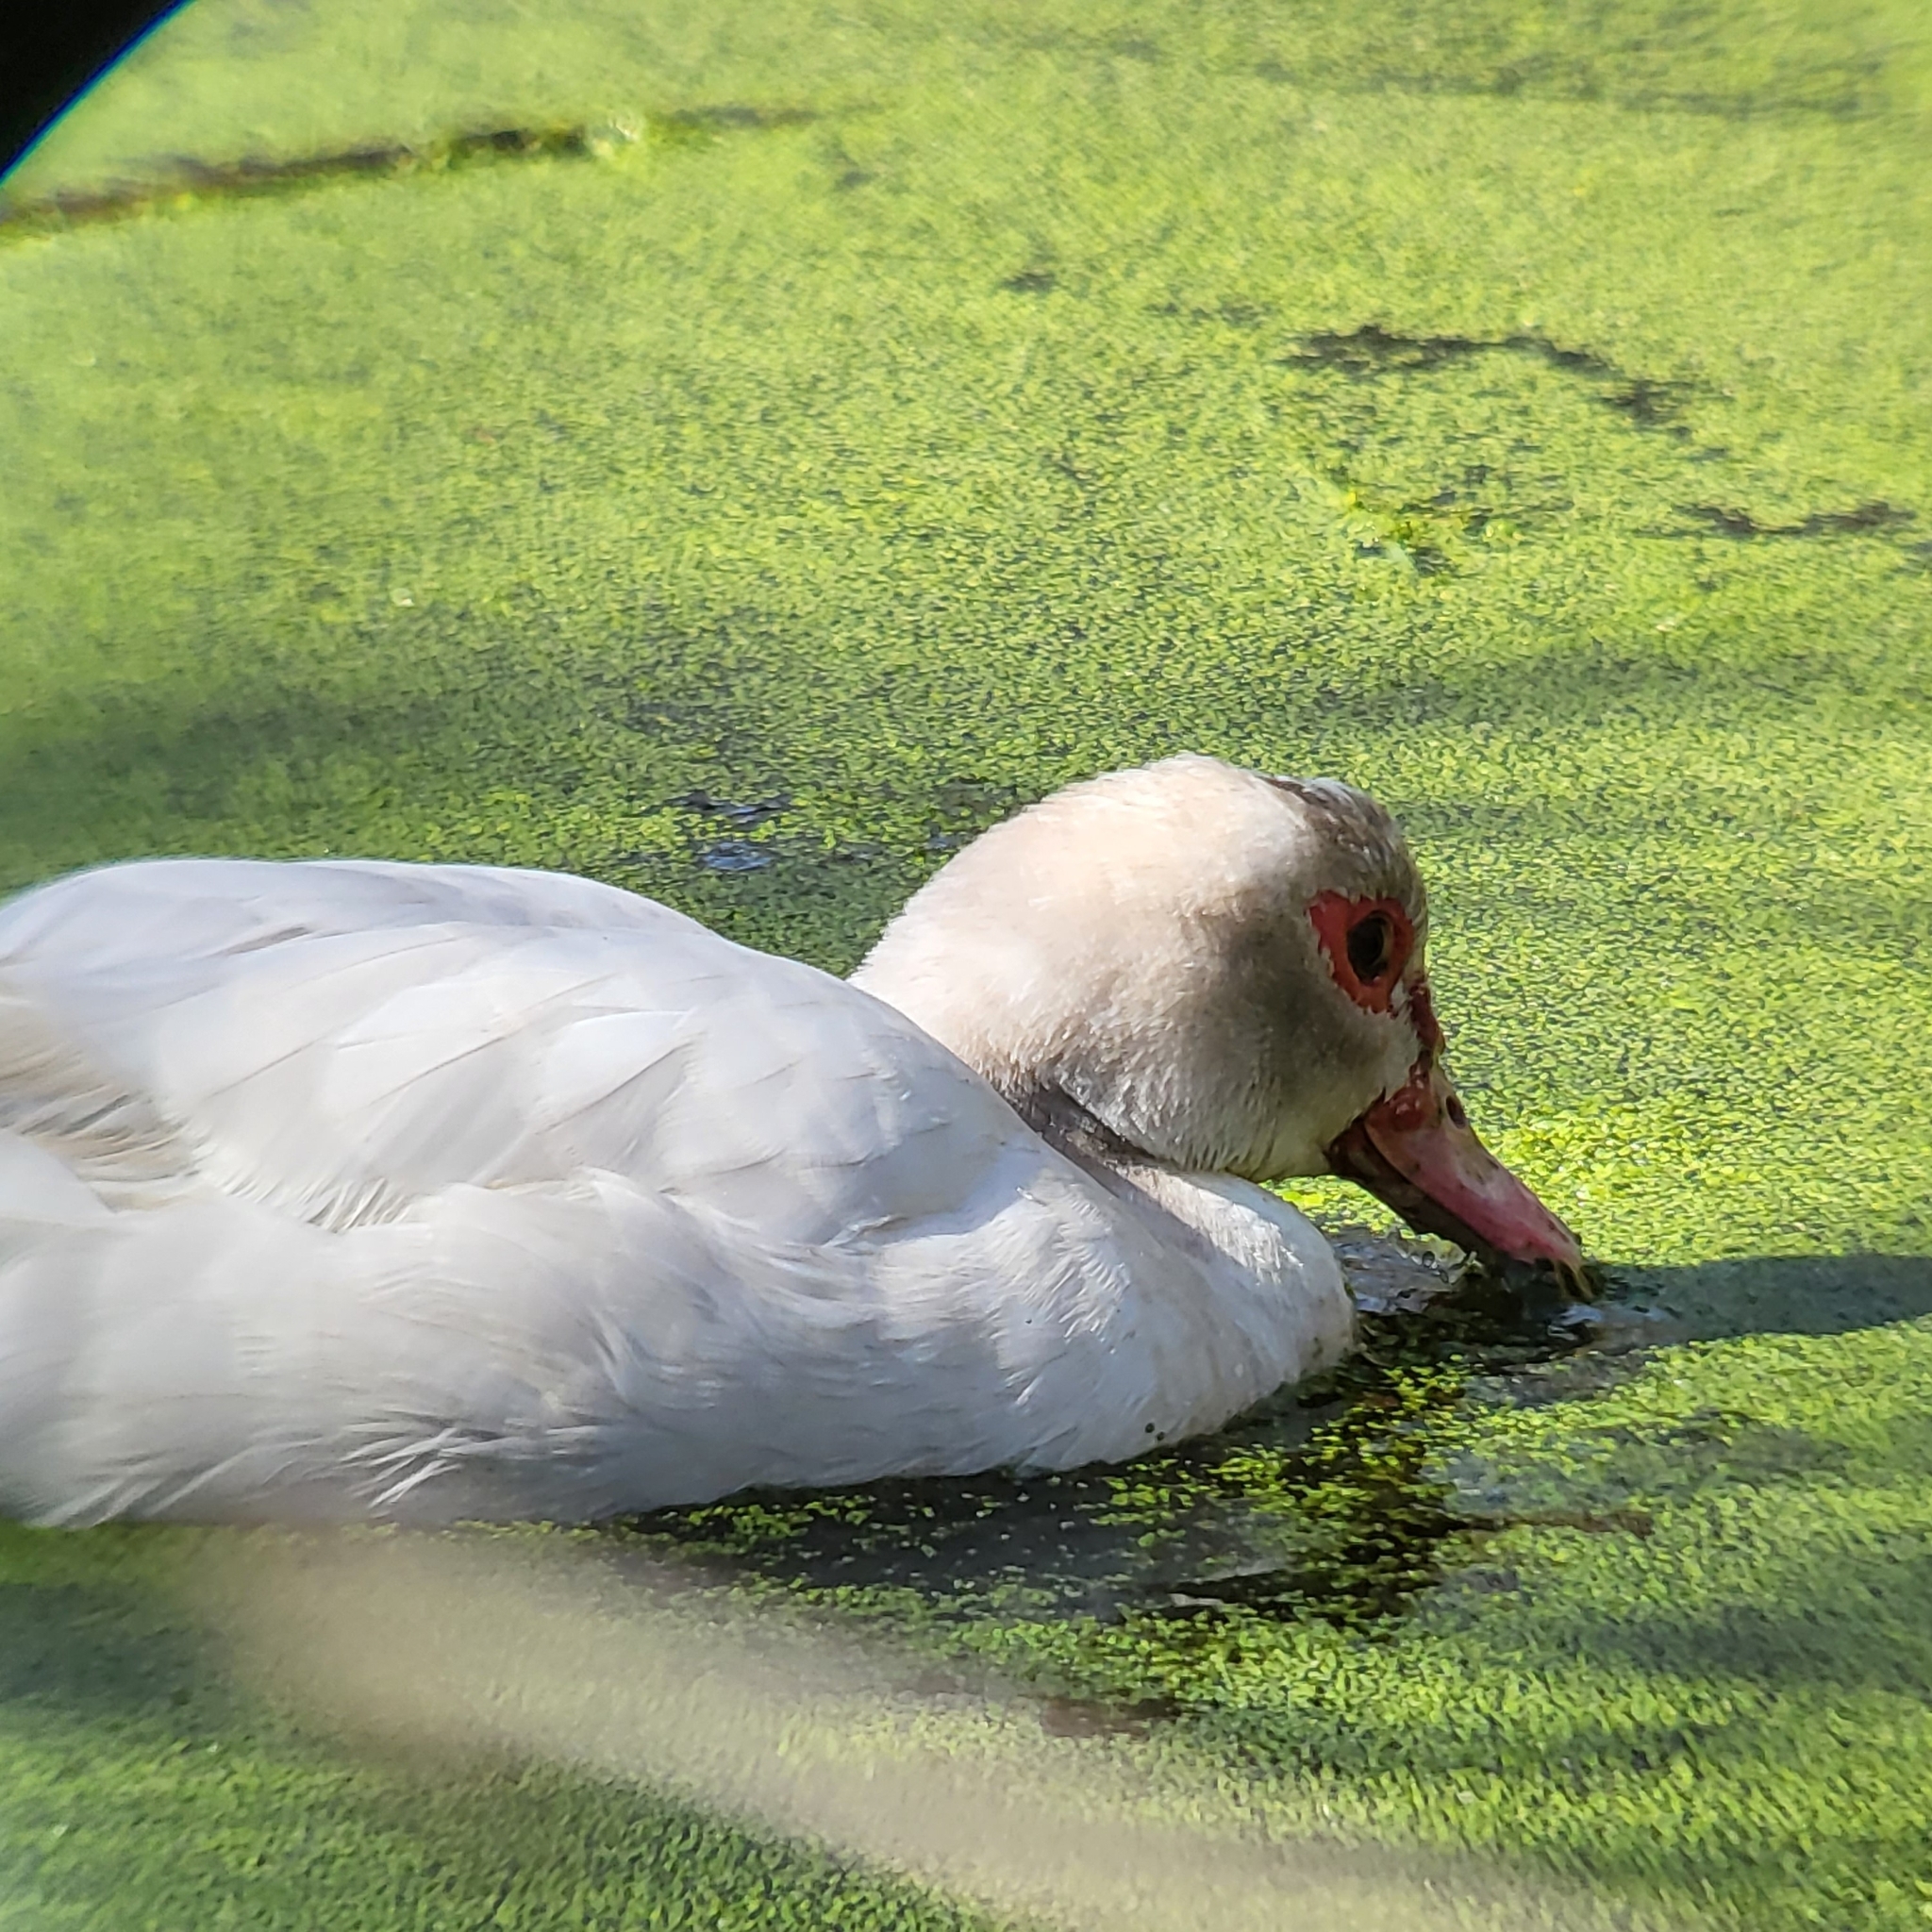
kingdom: Animalia
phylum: Chordata
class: Aves
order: Anseriformes
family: Anatidae
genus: Cairina
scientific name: Cairina moschata
